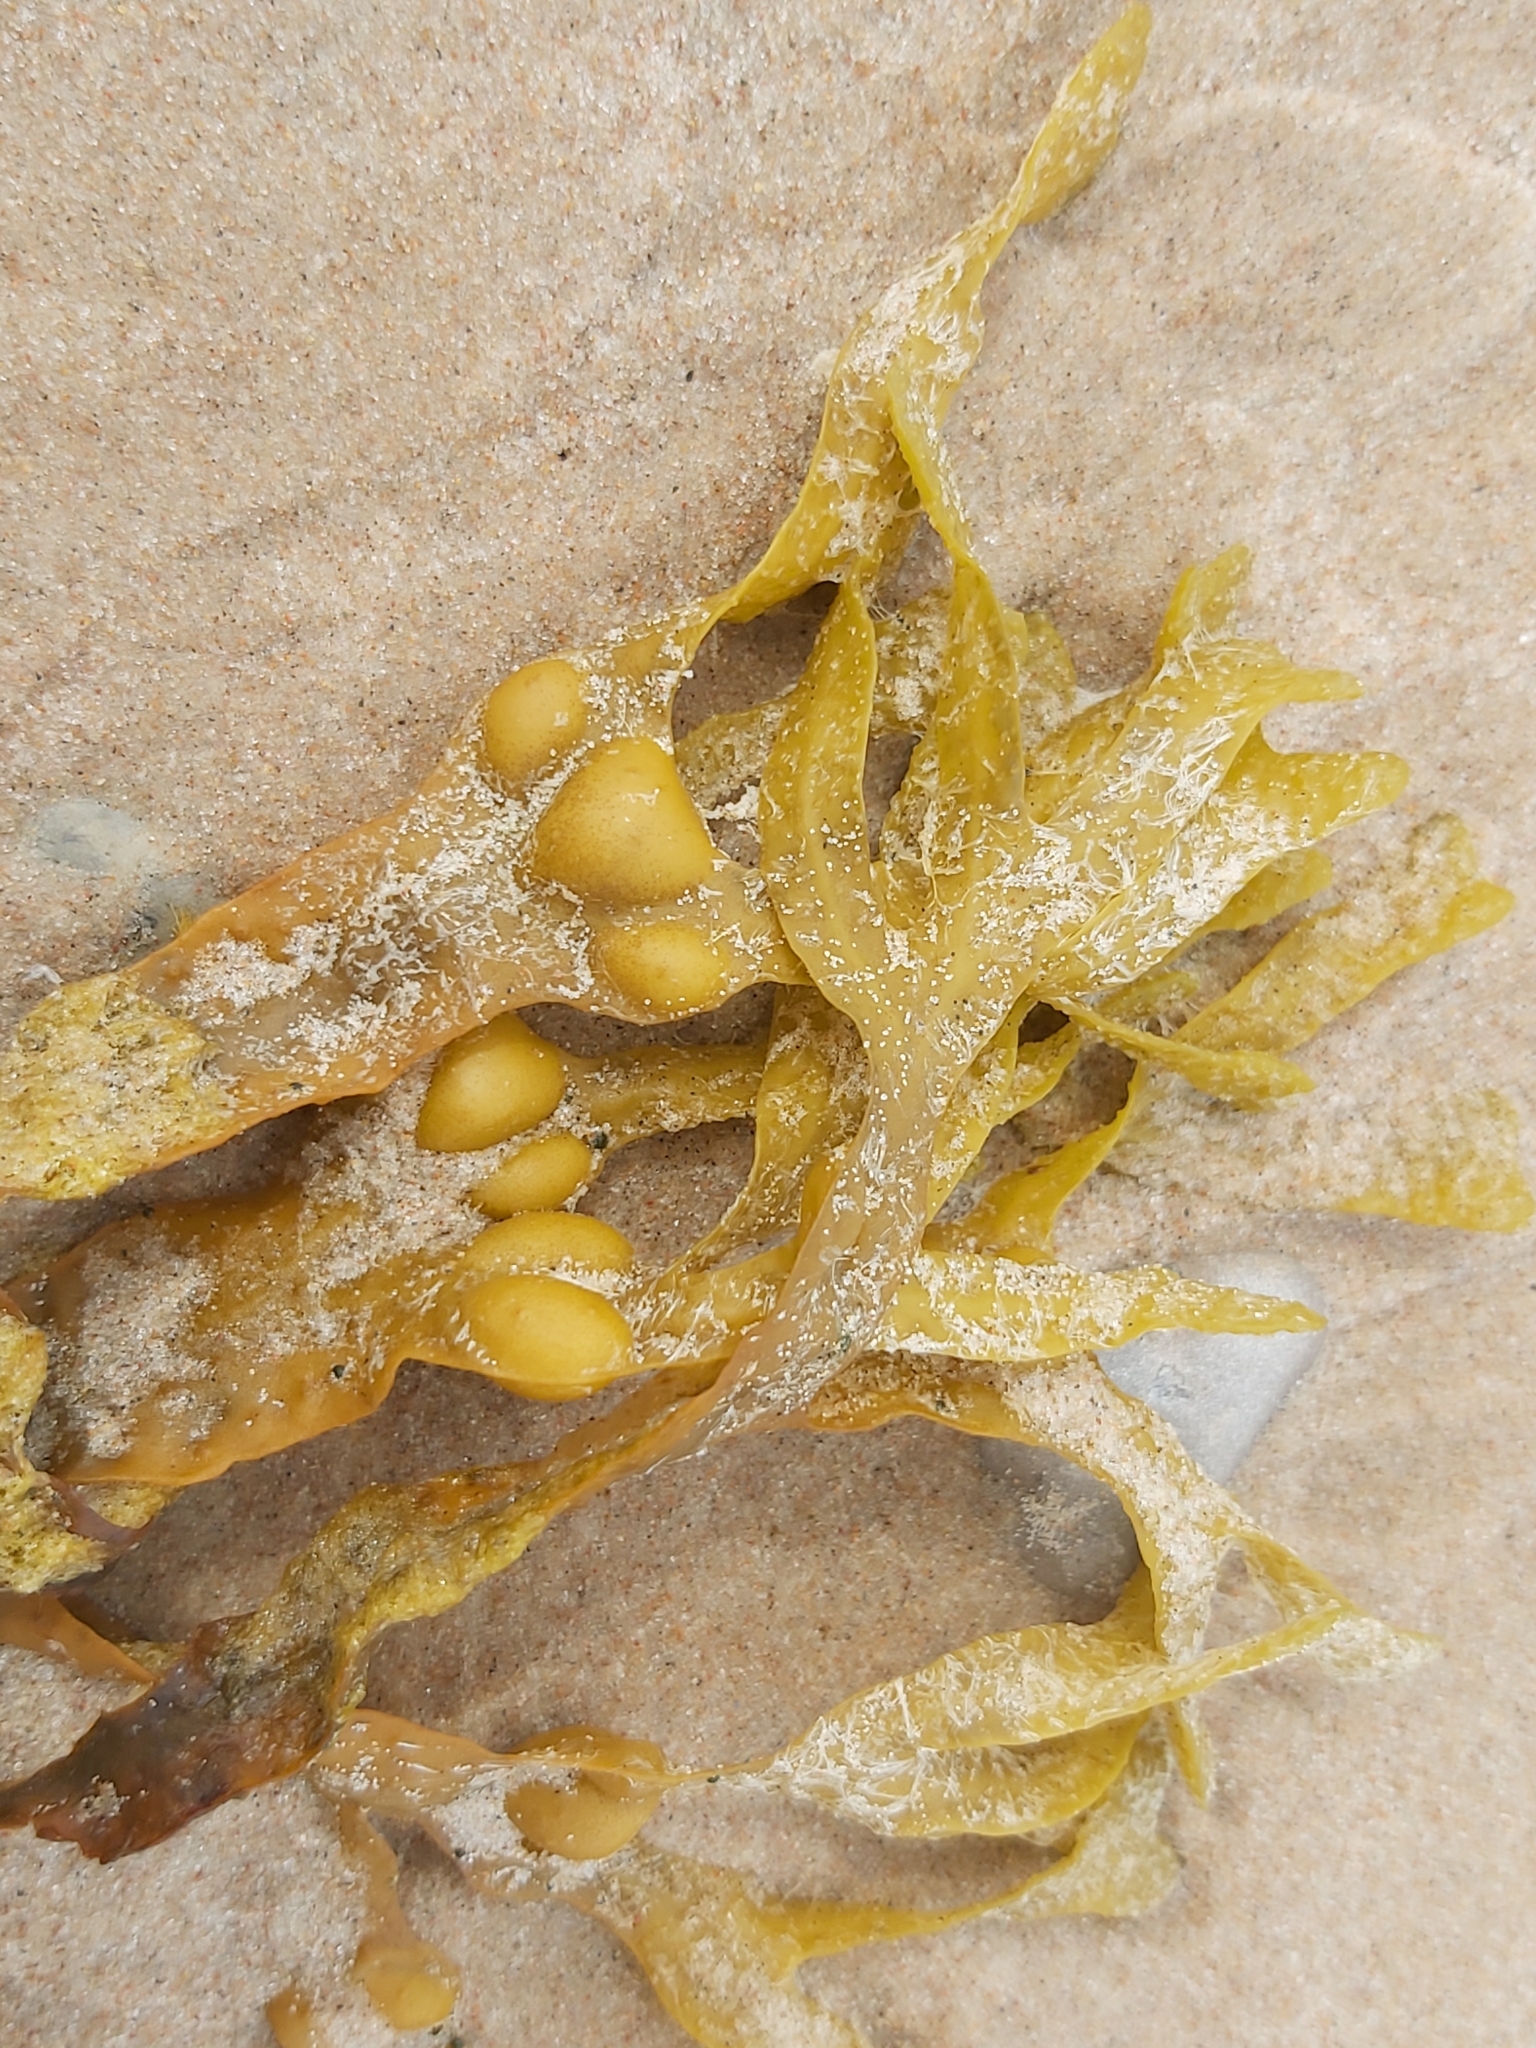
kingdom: Chromista
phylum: Ochrophyta
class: Phaeophyceae
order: Fucales
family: Fucaceae
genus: Fucus
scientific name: Fucus vesiculosus
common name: Bladder wrack
